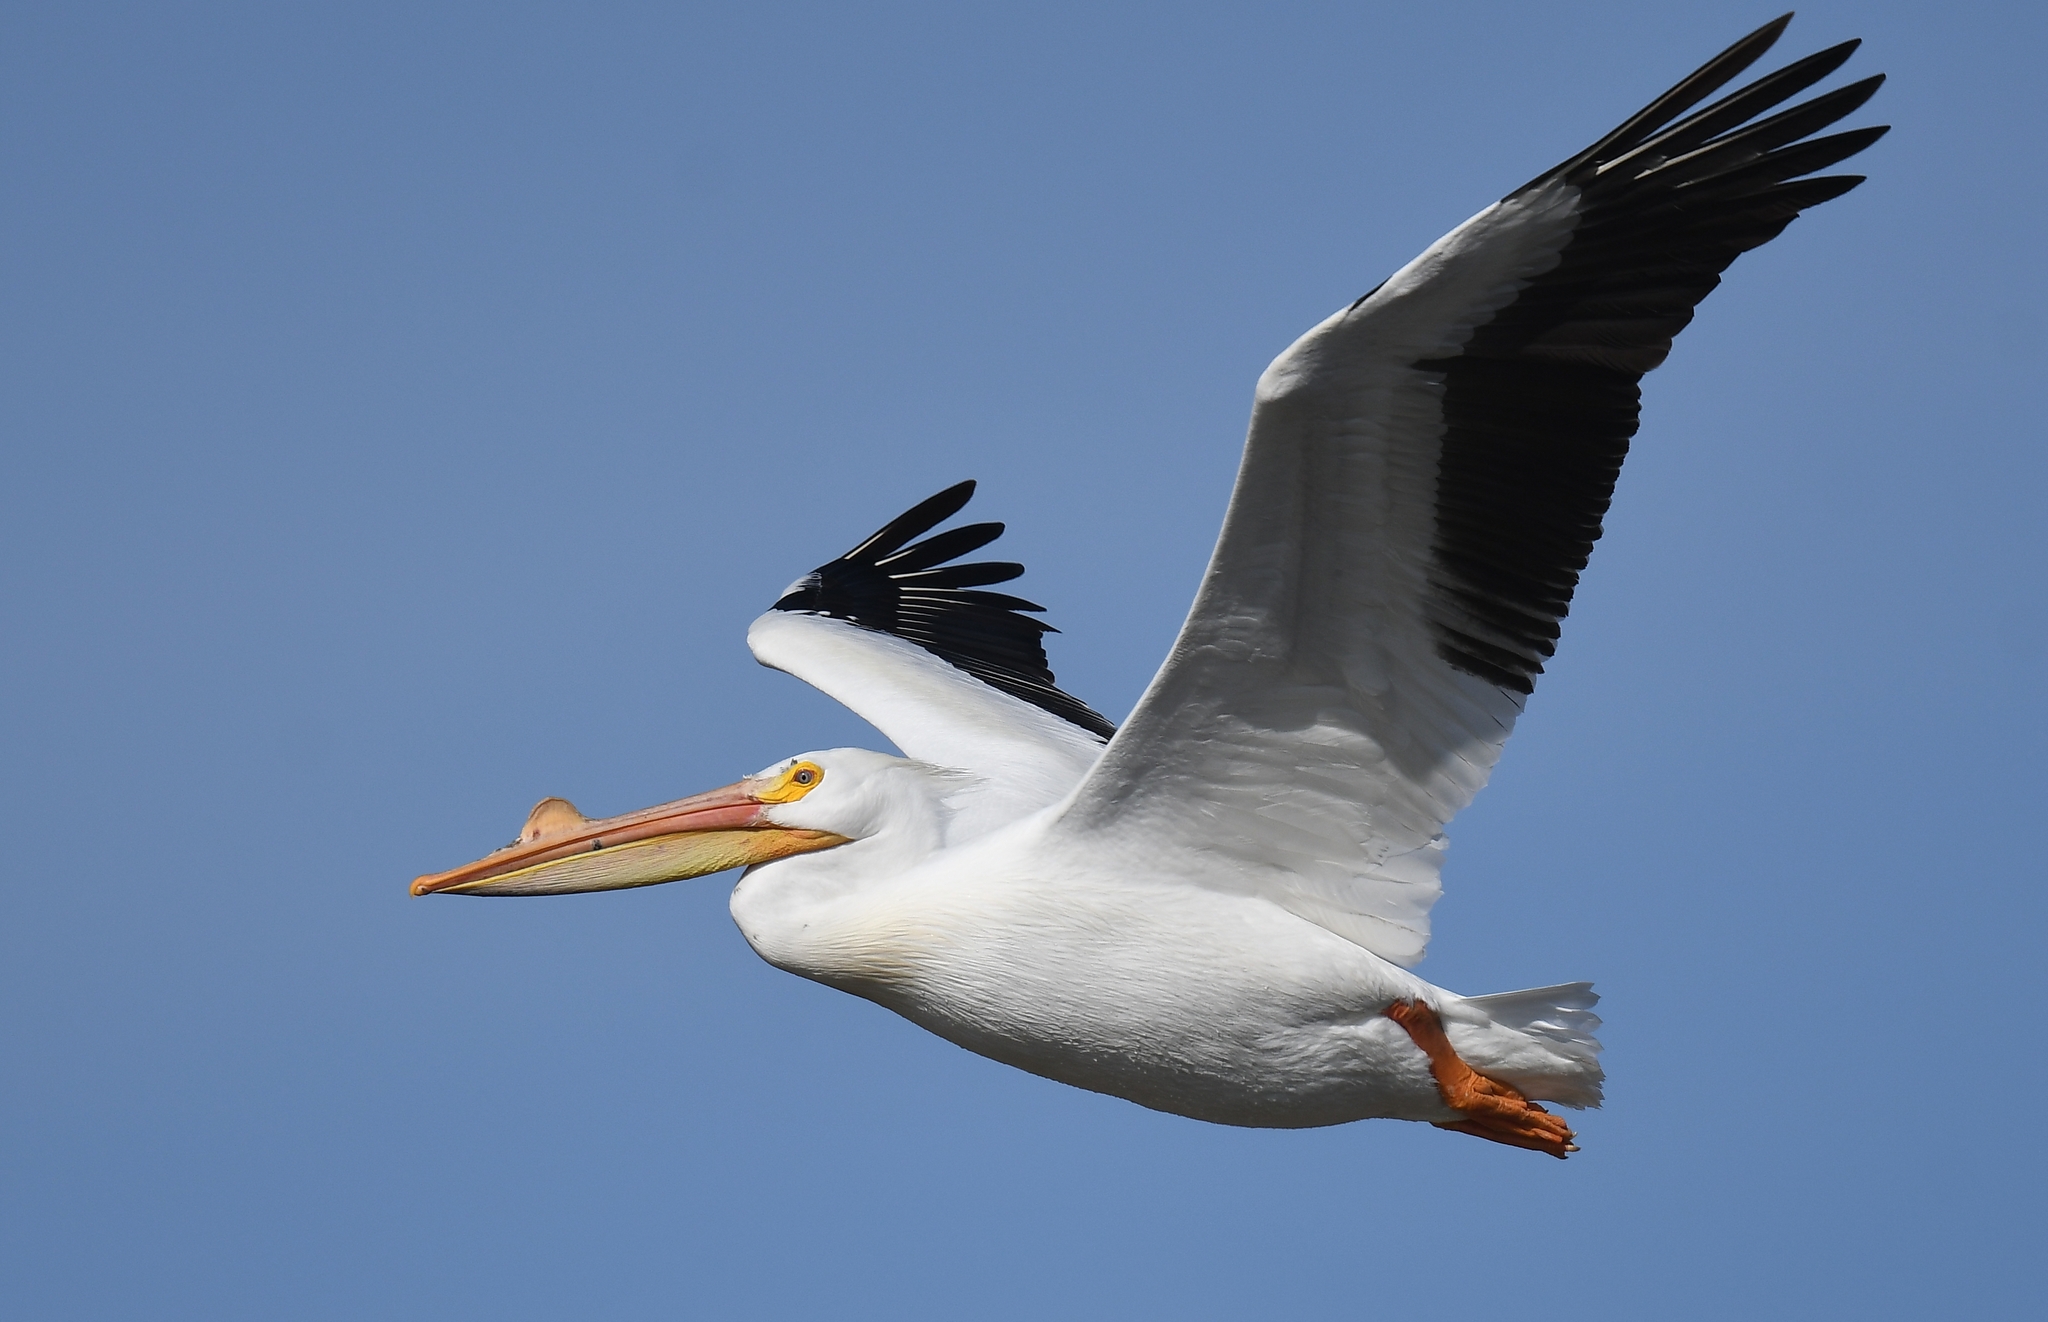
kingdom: Animalia
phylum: Chordata
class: Aves
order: Pelecaniformes
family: Pelecanidae
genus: Pelecanus
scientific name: Pelecanus erythrorhynchos
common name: American white pelican
